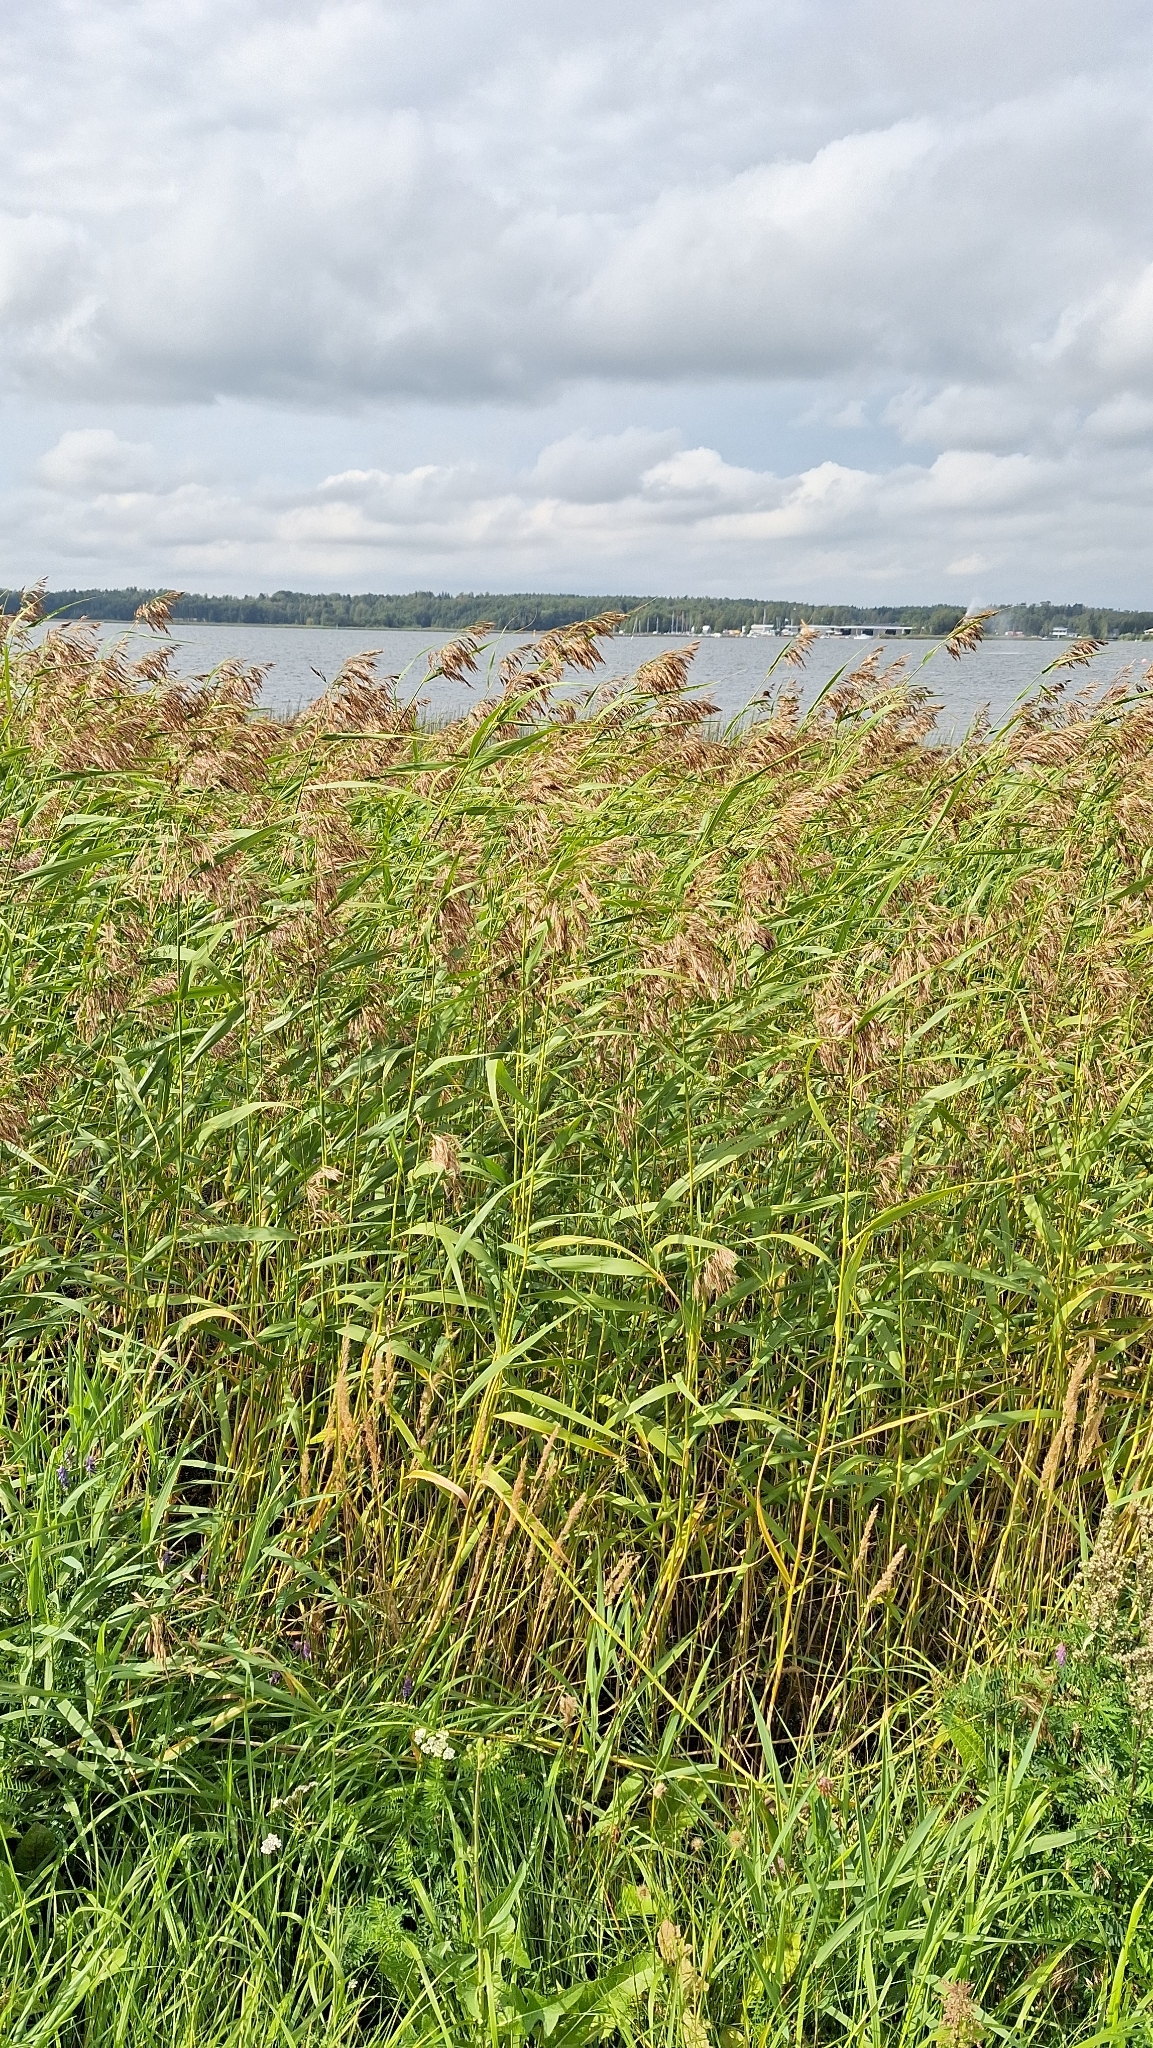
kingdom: Plantae
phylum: Tracheophyta
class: Liliopsida
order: Poales
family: Poaceae
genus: Phragmites
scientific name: Phragmites australis
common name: Common reed
